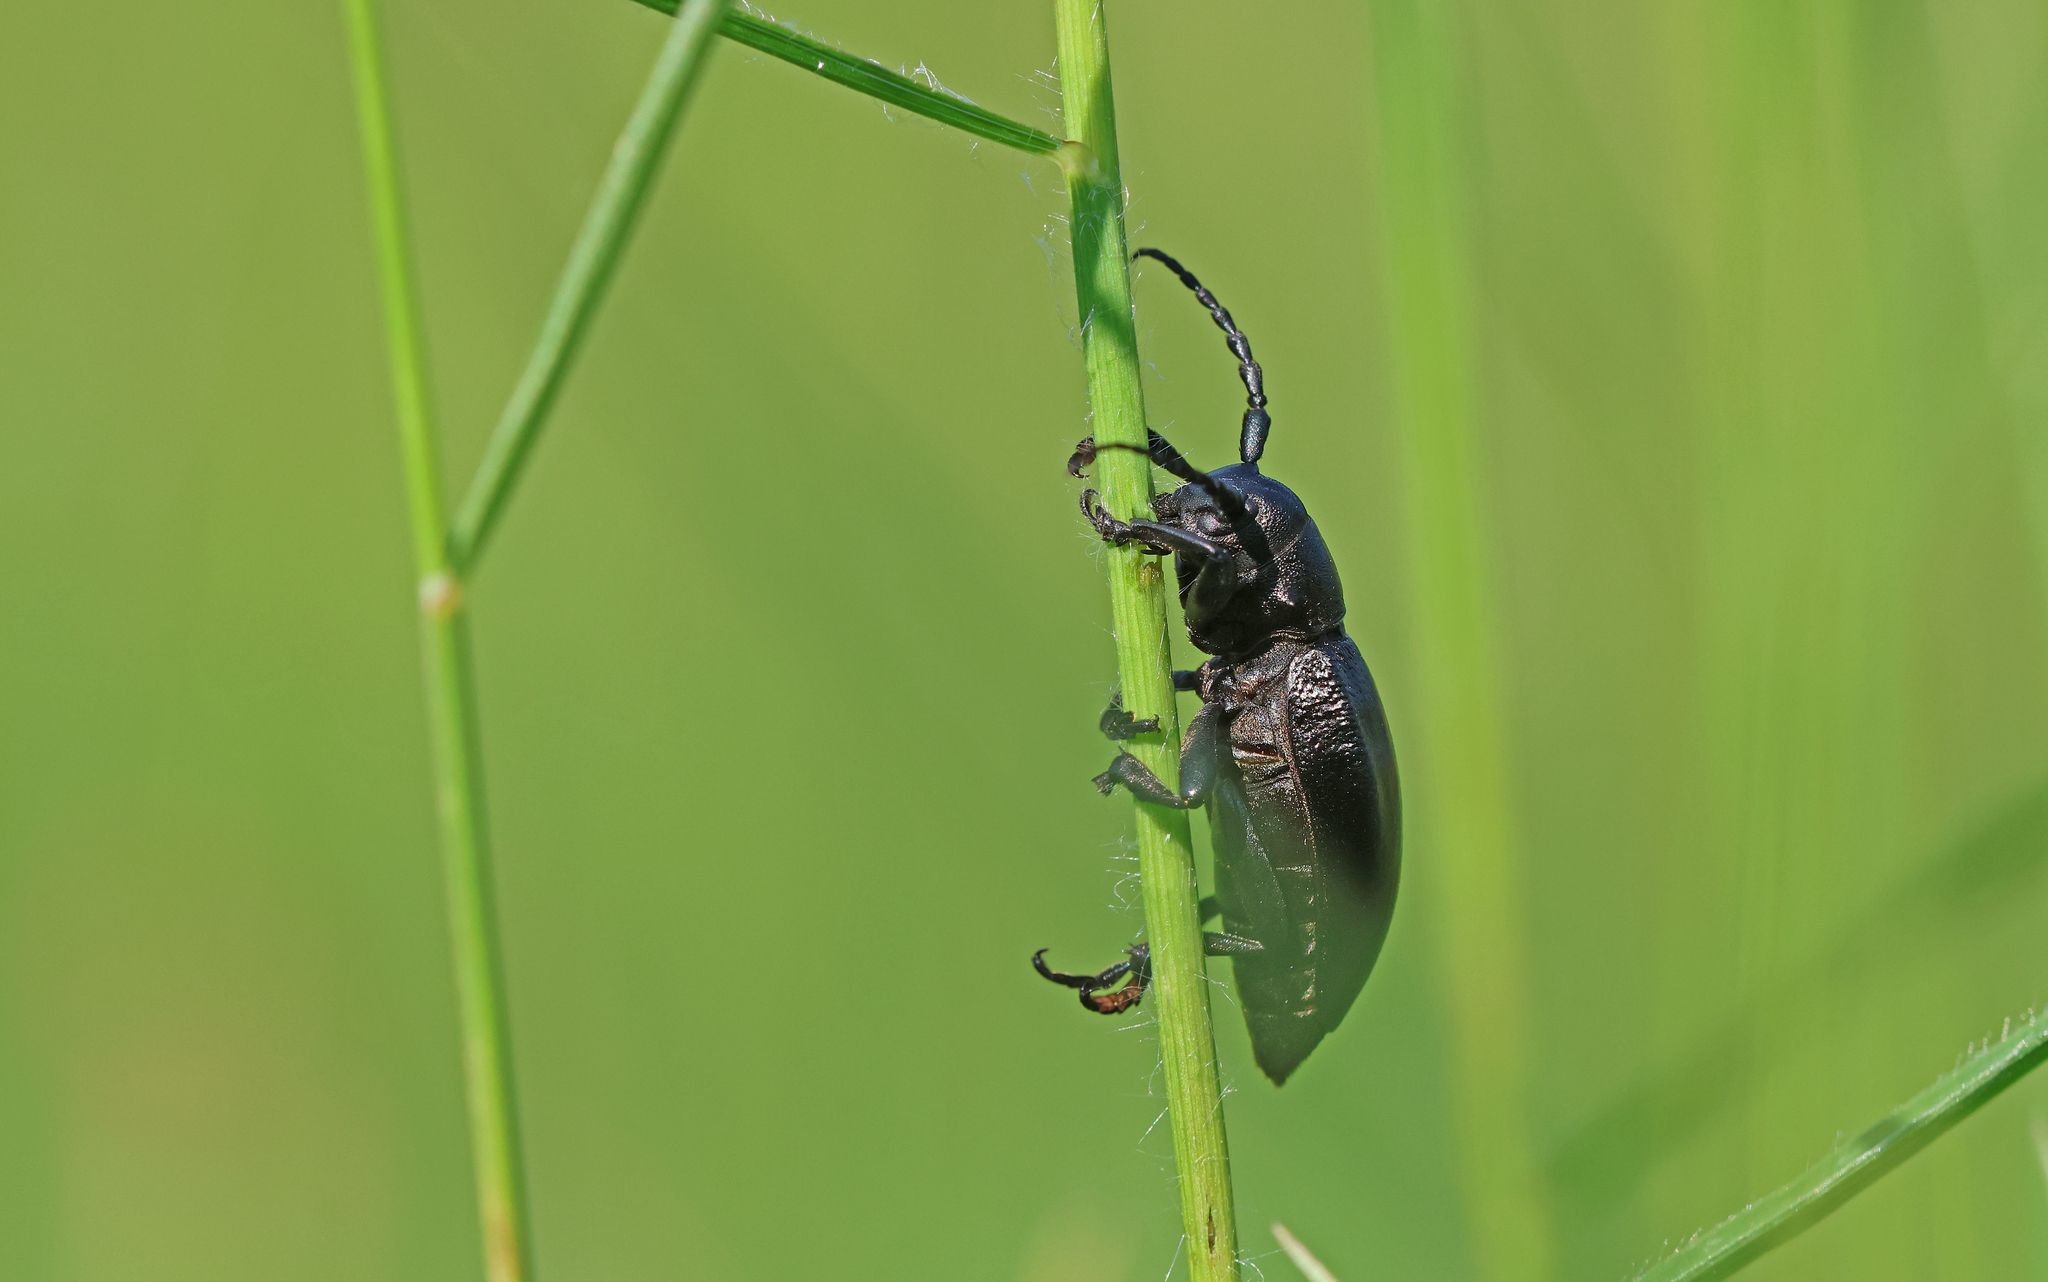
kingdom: Animalia
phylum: Arthropoda
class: Insecta
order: Coleoptera
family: Cerambycidae
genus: Dorcadion
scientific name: Dorcadion aethiops
